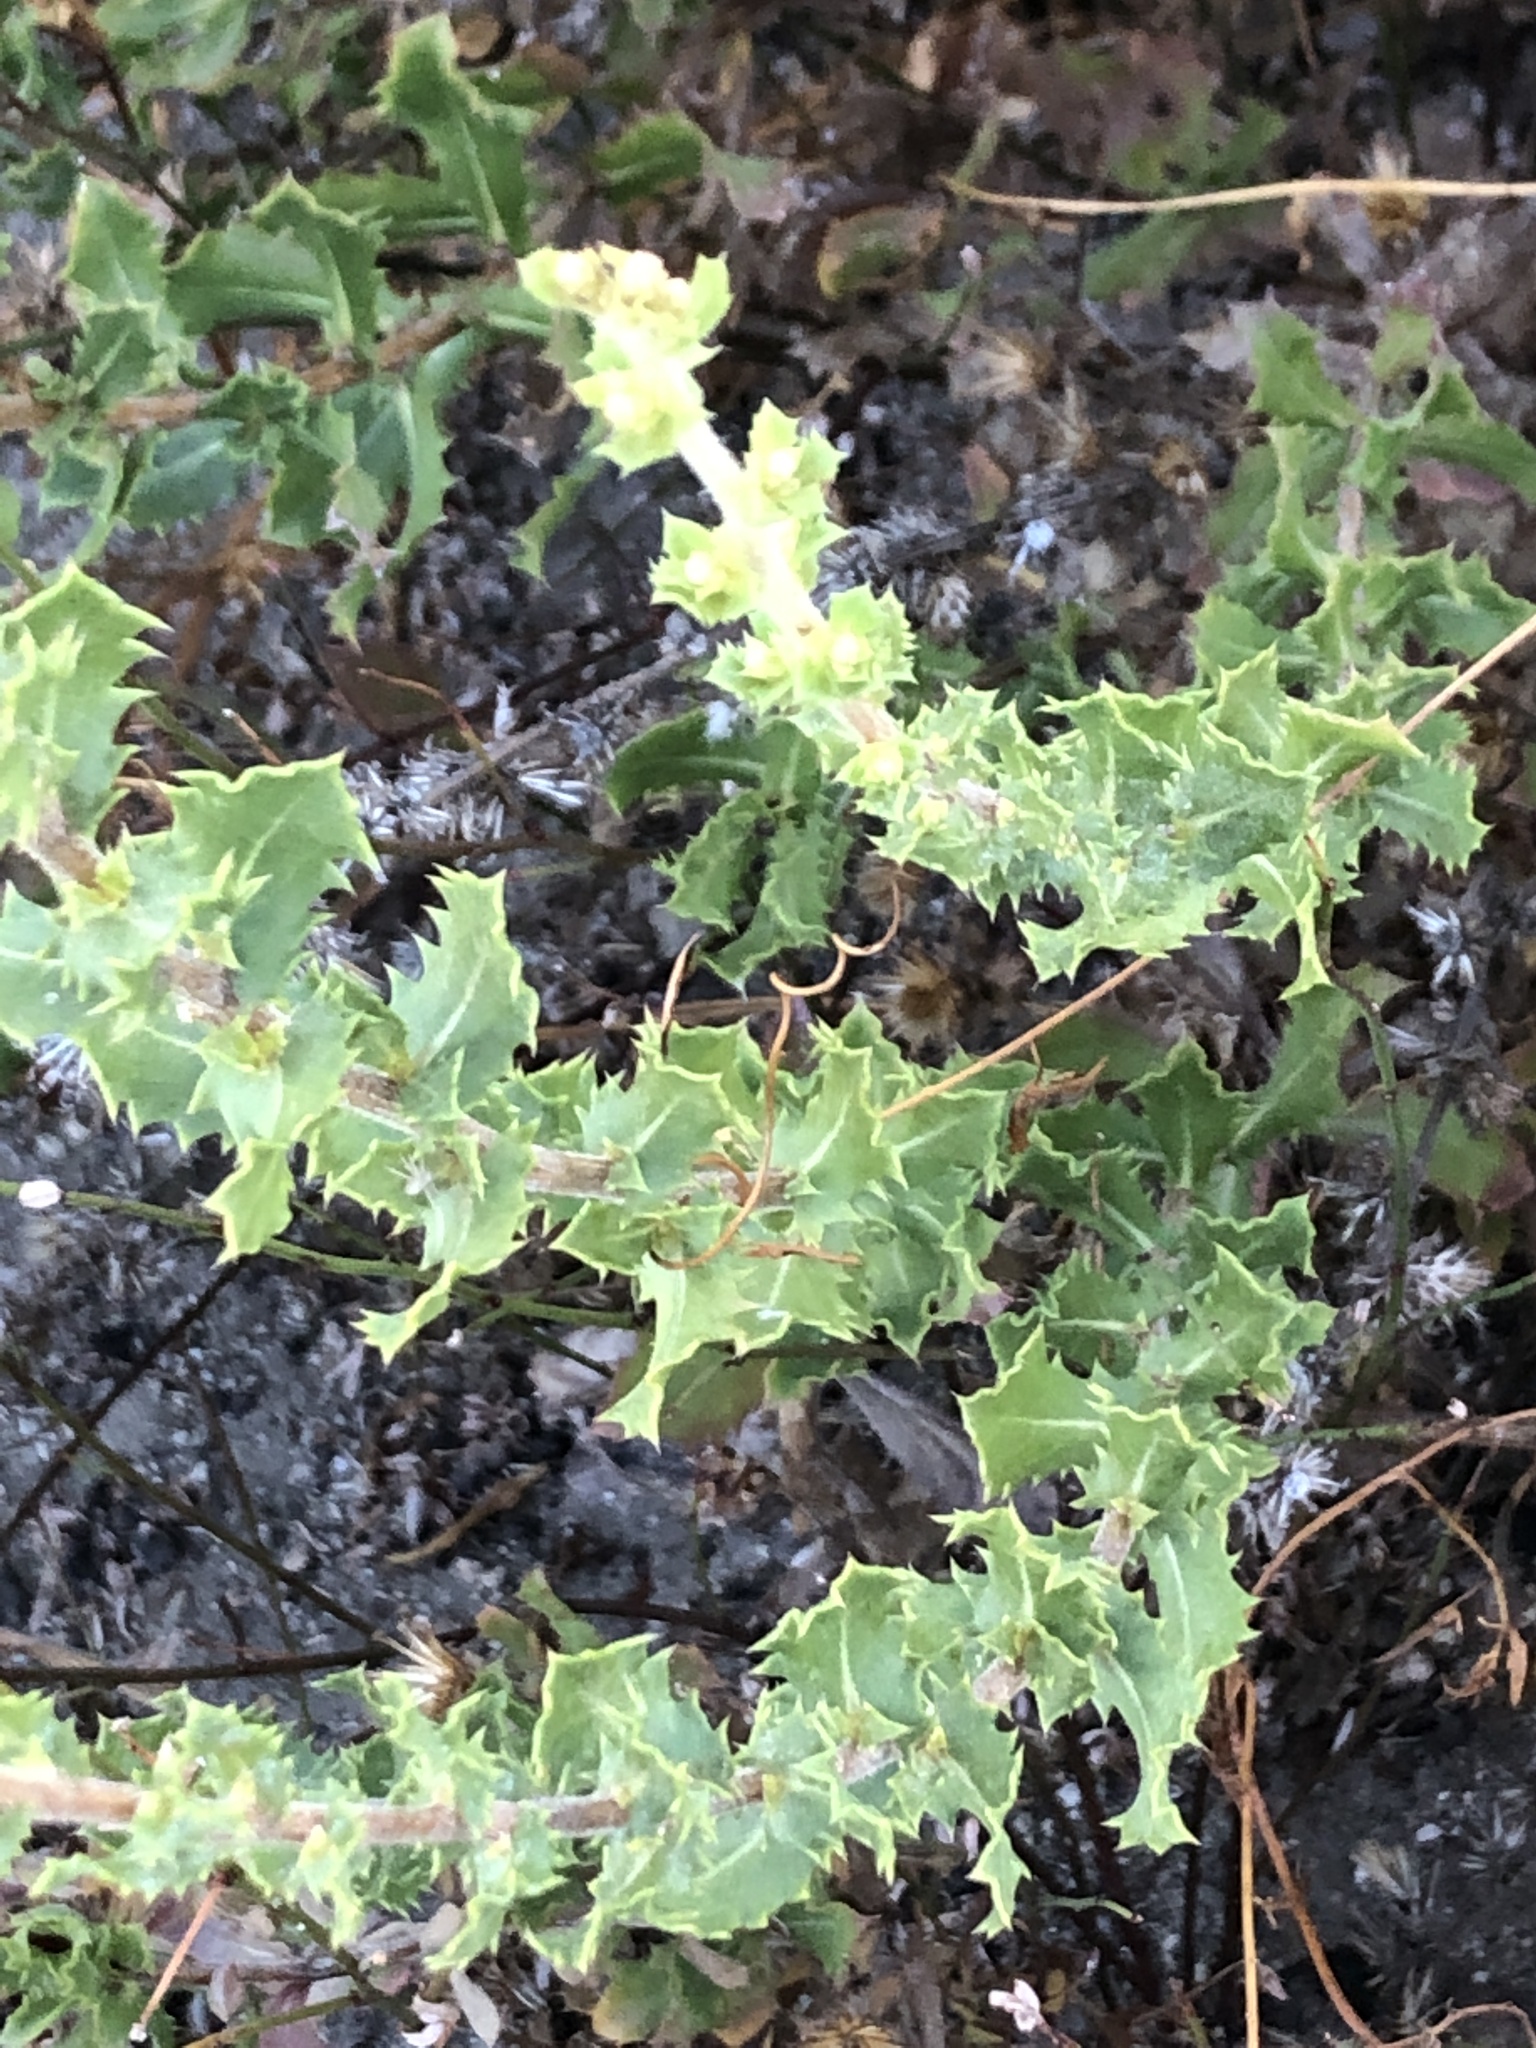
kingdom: Plantae
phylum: Tracheophyta
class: Magnoliopsida
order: Asterales
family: Asteraceae
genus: Hazardia
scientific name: Hazardia squarrosa
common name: Saw-tooth goldenbush
